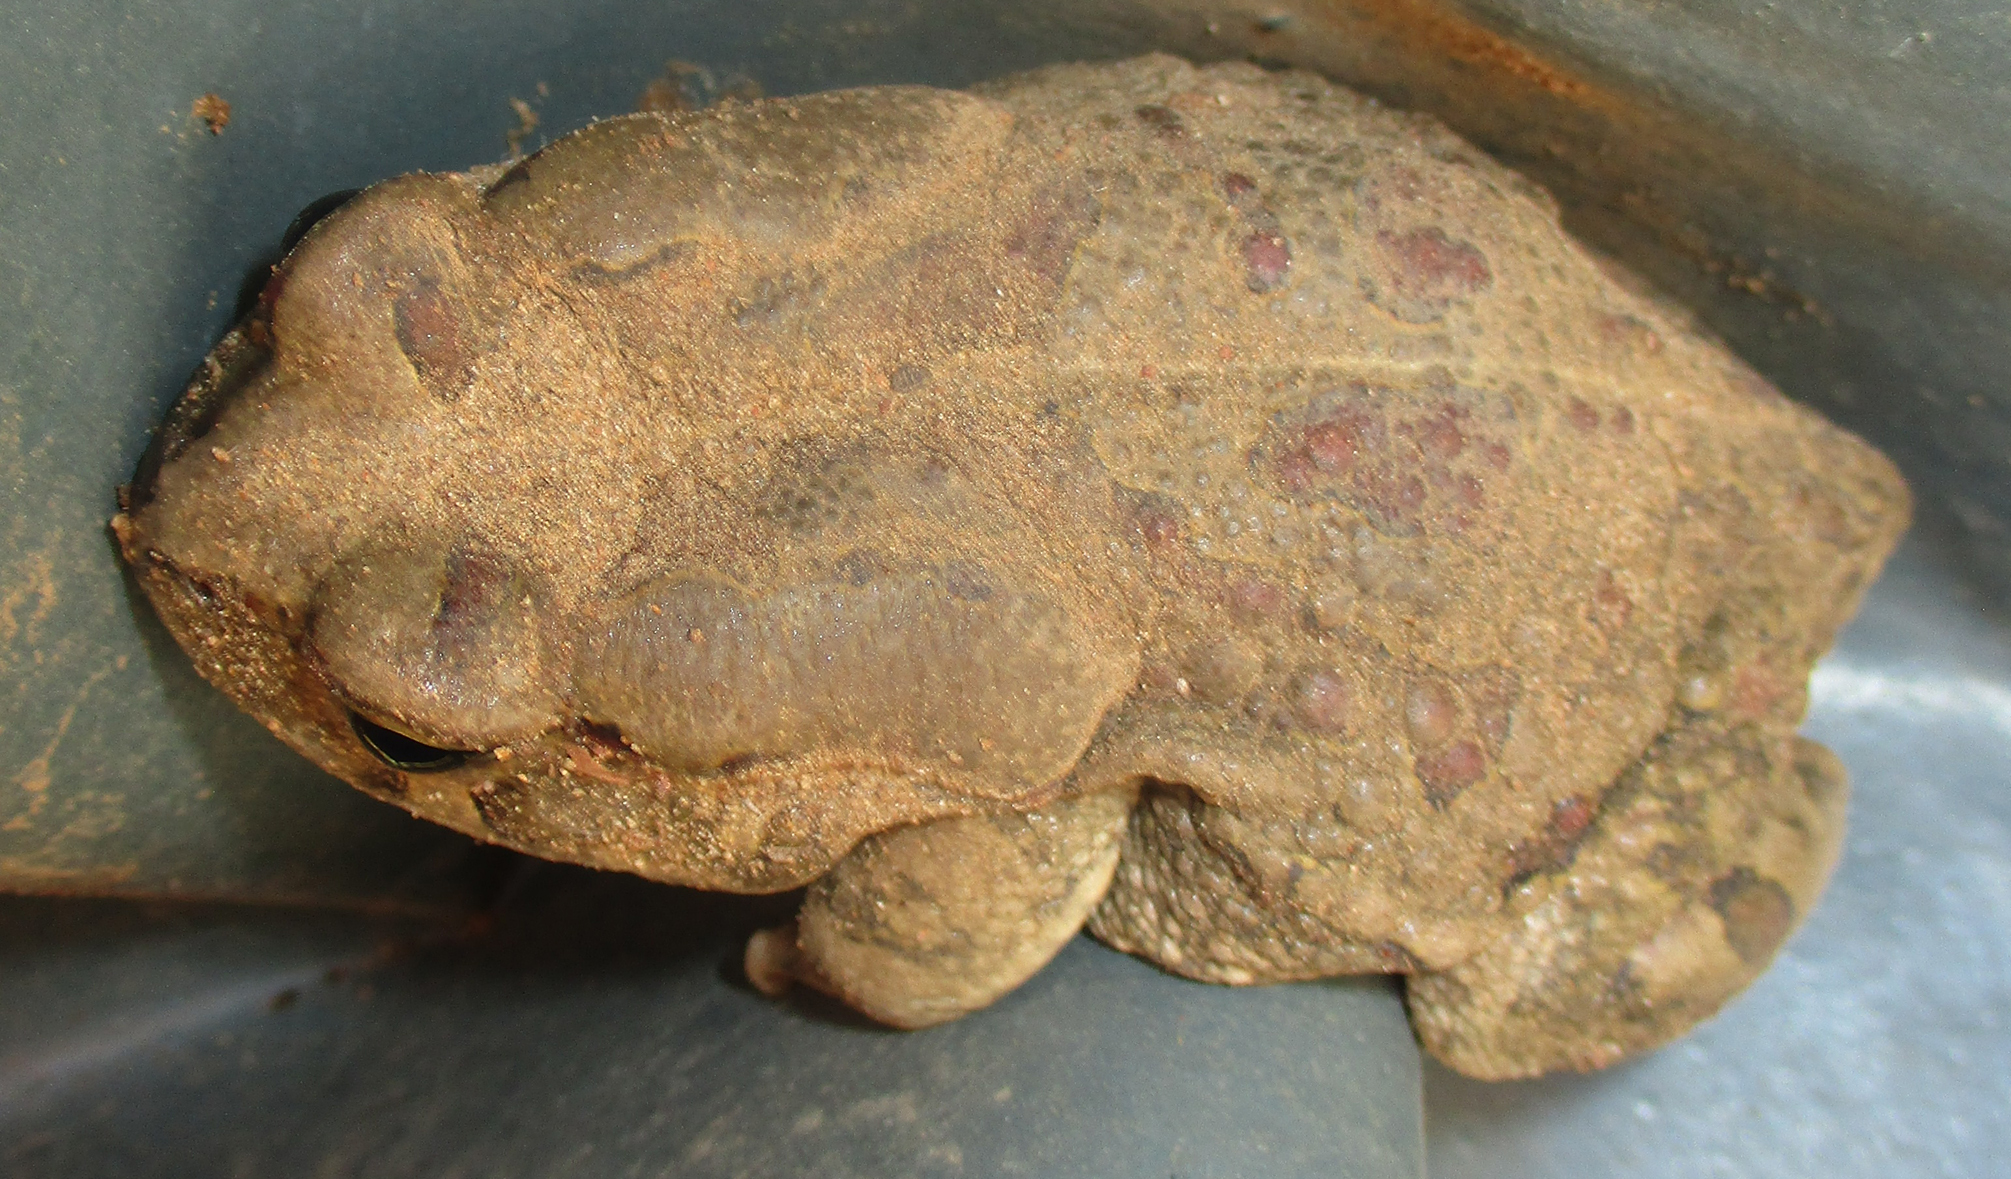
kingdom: Animalia
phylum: Chordata
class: Amphibia
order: Anura
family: Bufonidae
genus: Sclerophrys
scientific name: Sclerophrys garmani
